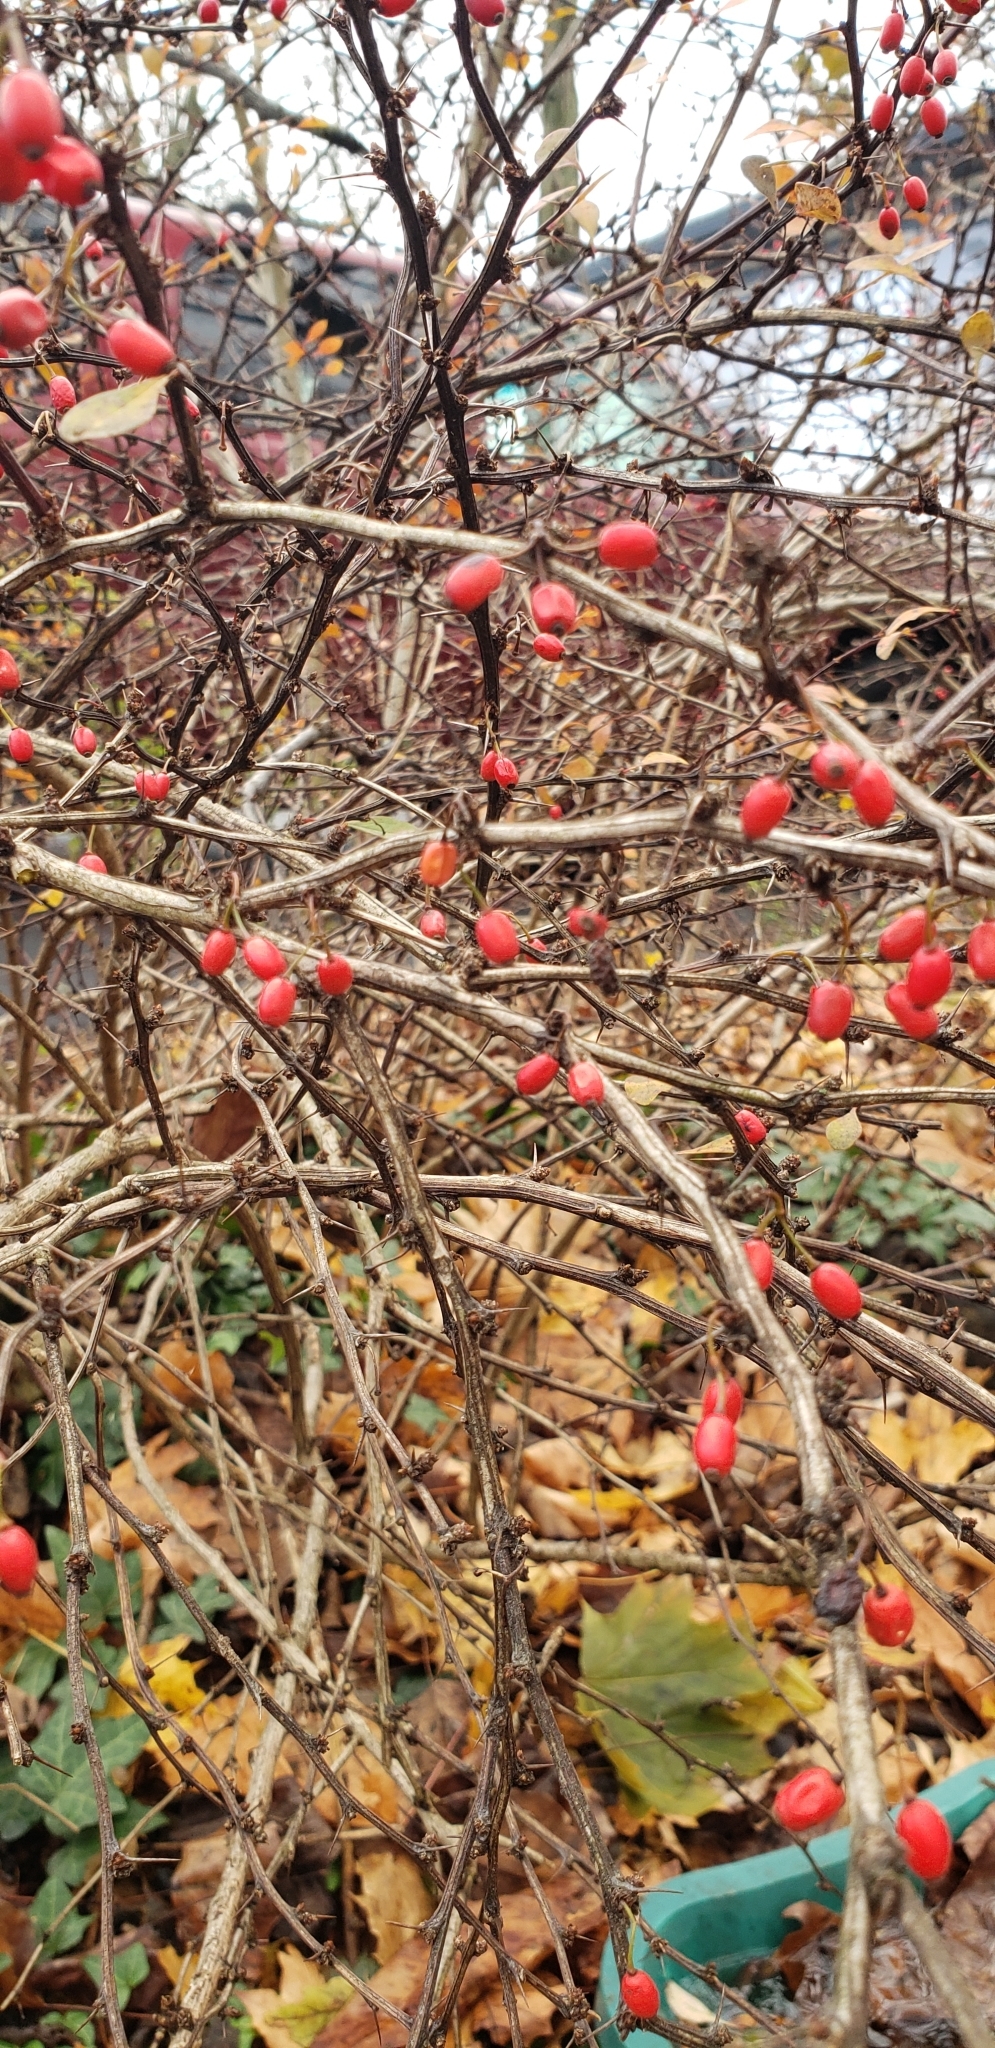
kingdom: Plantae
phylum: Tracheophyta
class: Magnoliopsida
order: Ranunculales
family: Berberidaceae
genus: Berberis
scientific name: Berberis thunbergii
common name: Japanese barberry
